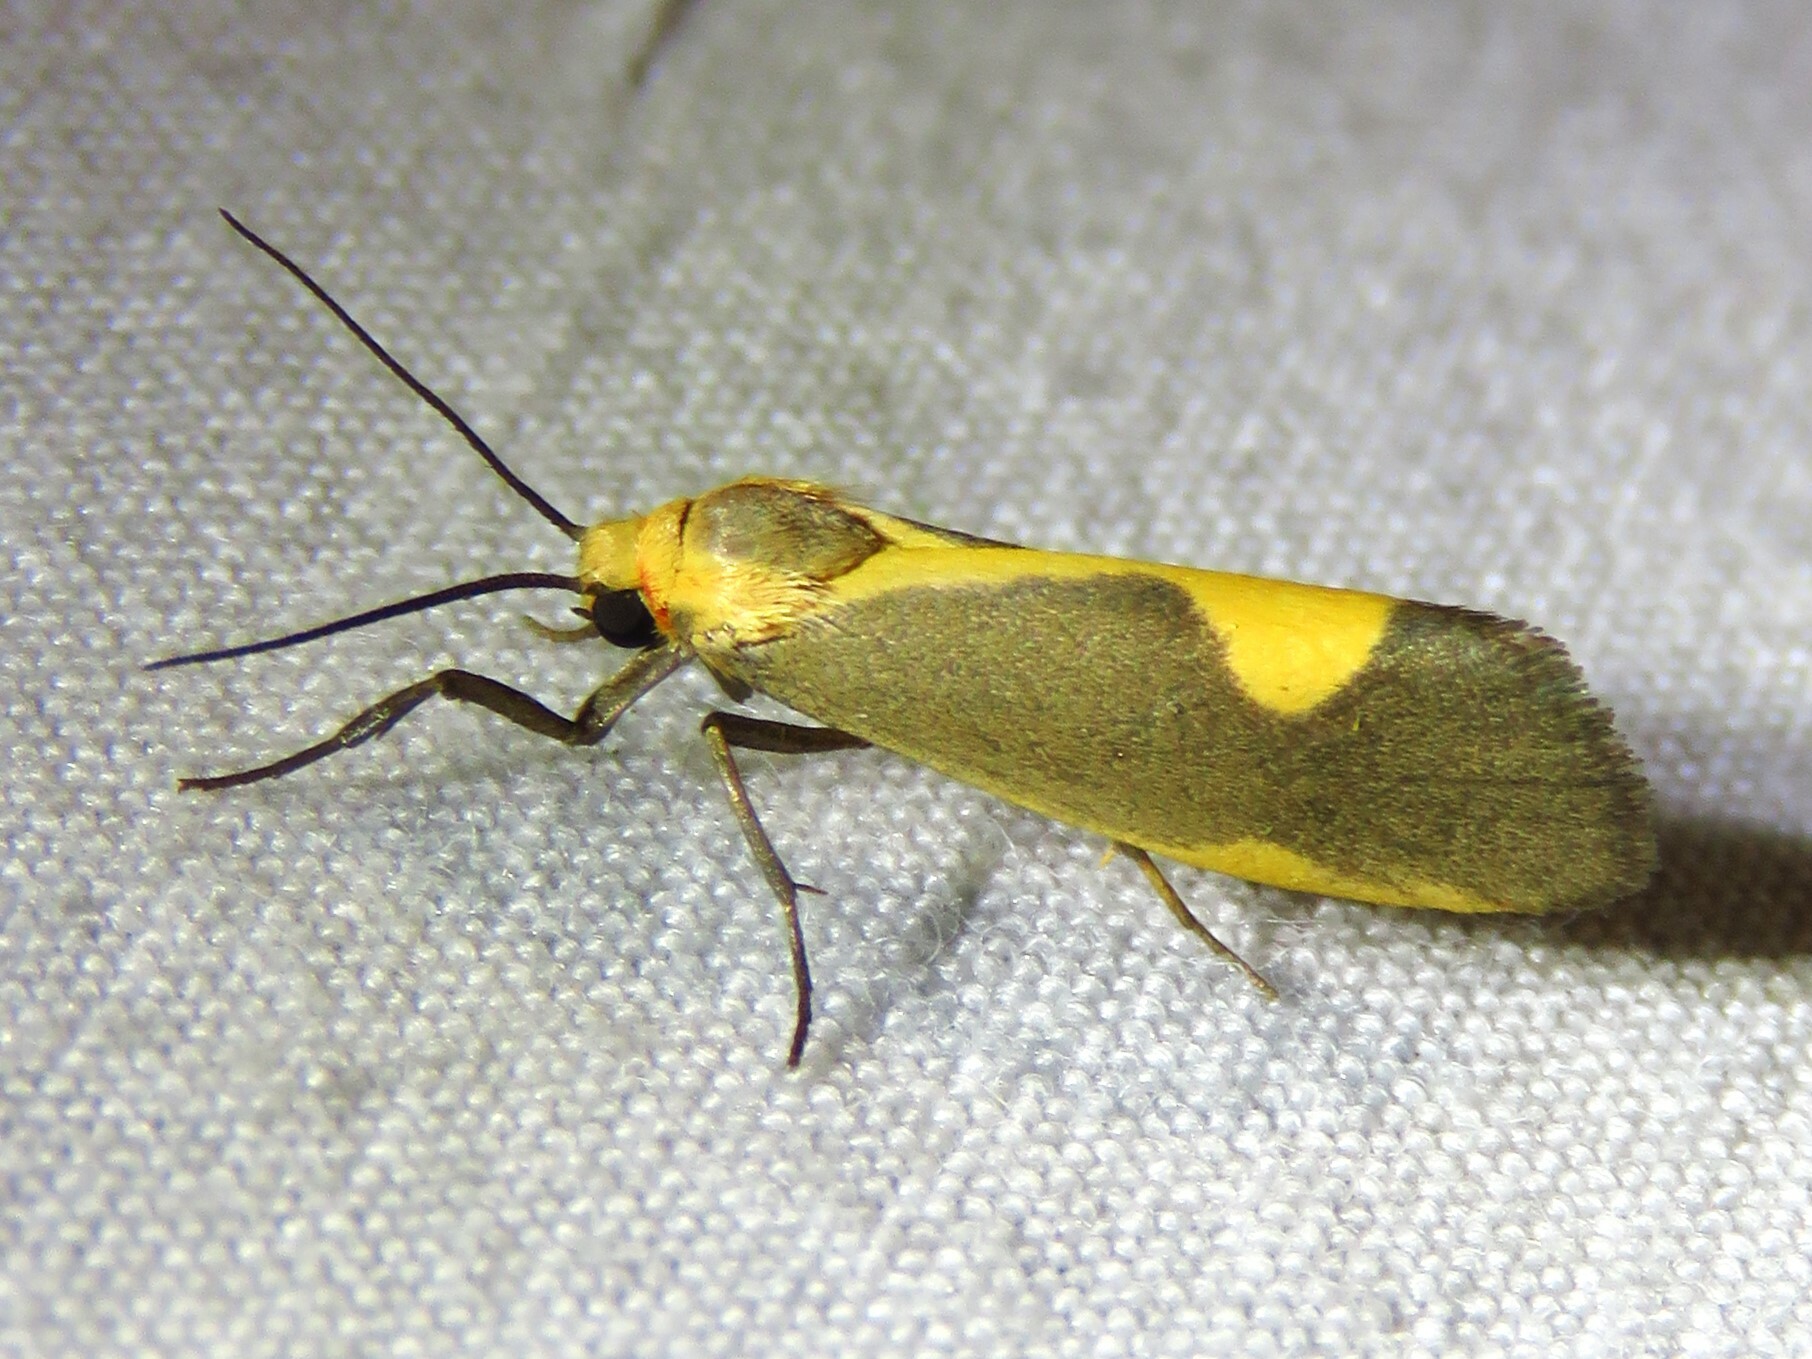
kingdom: Animalia
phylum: Arthropoda
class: Insecta
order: Lepidoptera
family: Erebidae
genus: Cisthene
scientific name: Cisthene plumbea
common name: Lead colored lichen moth
